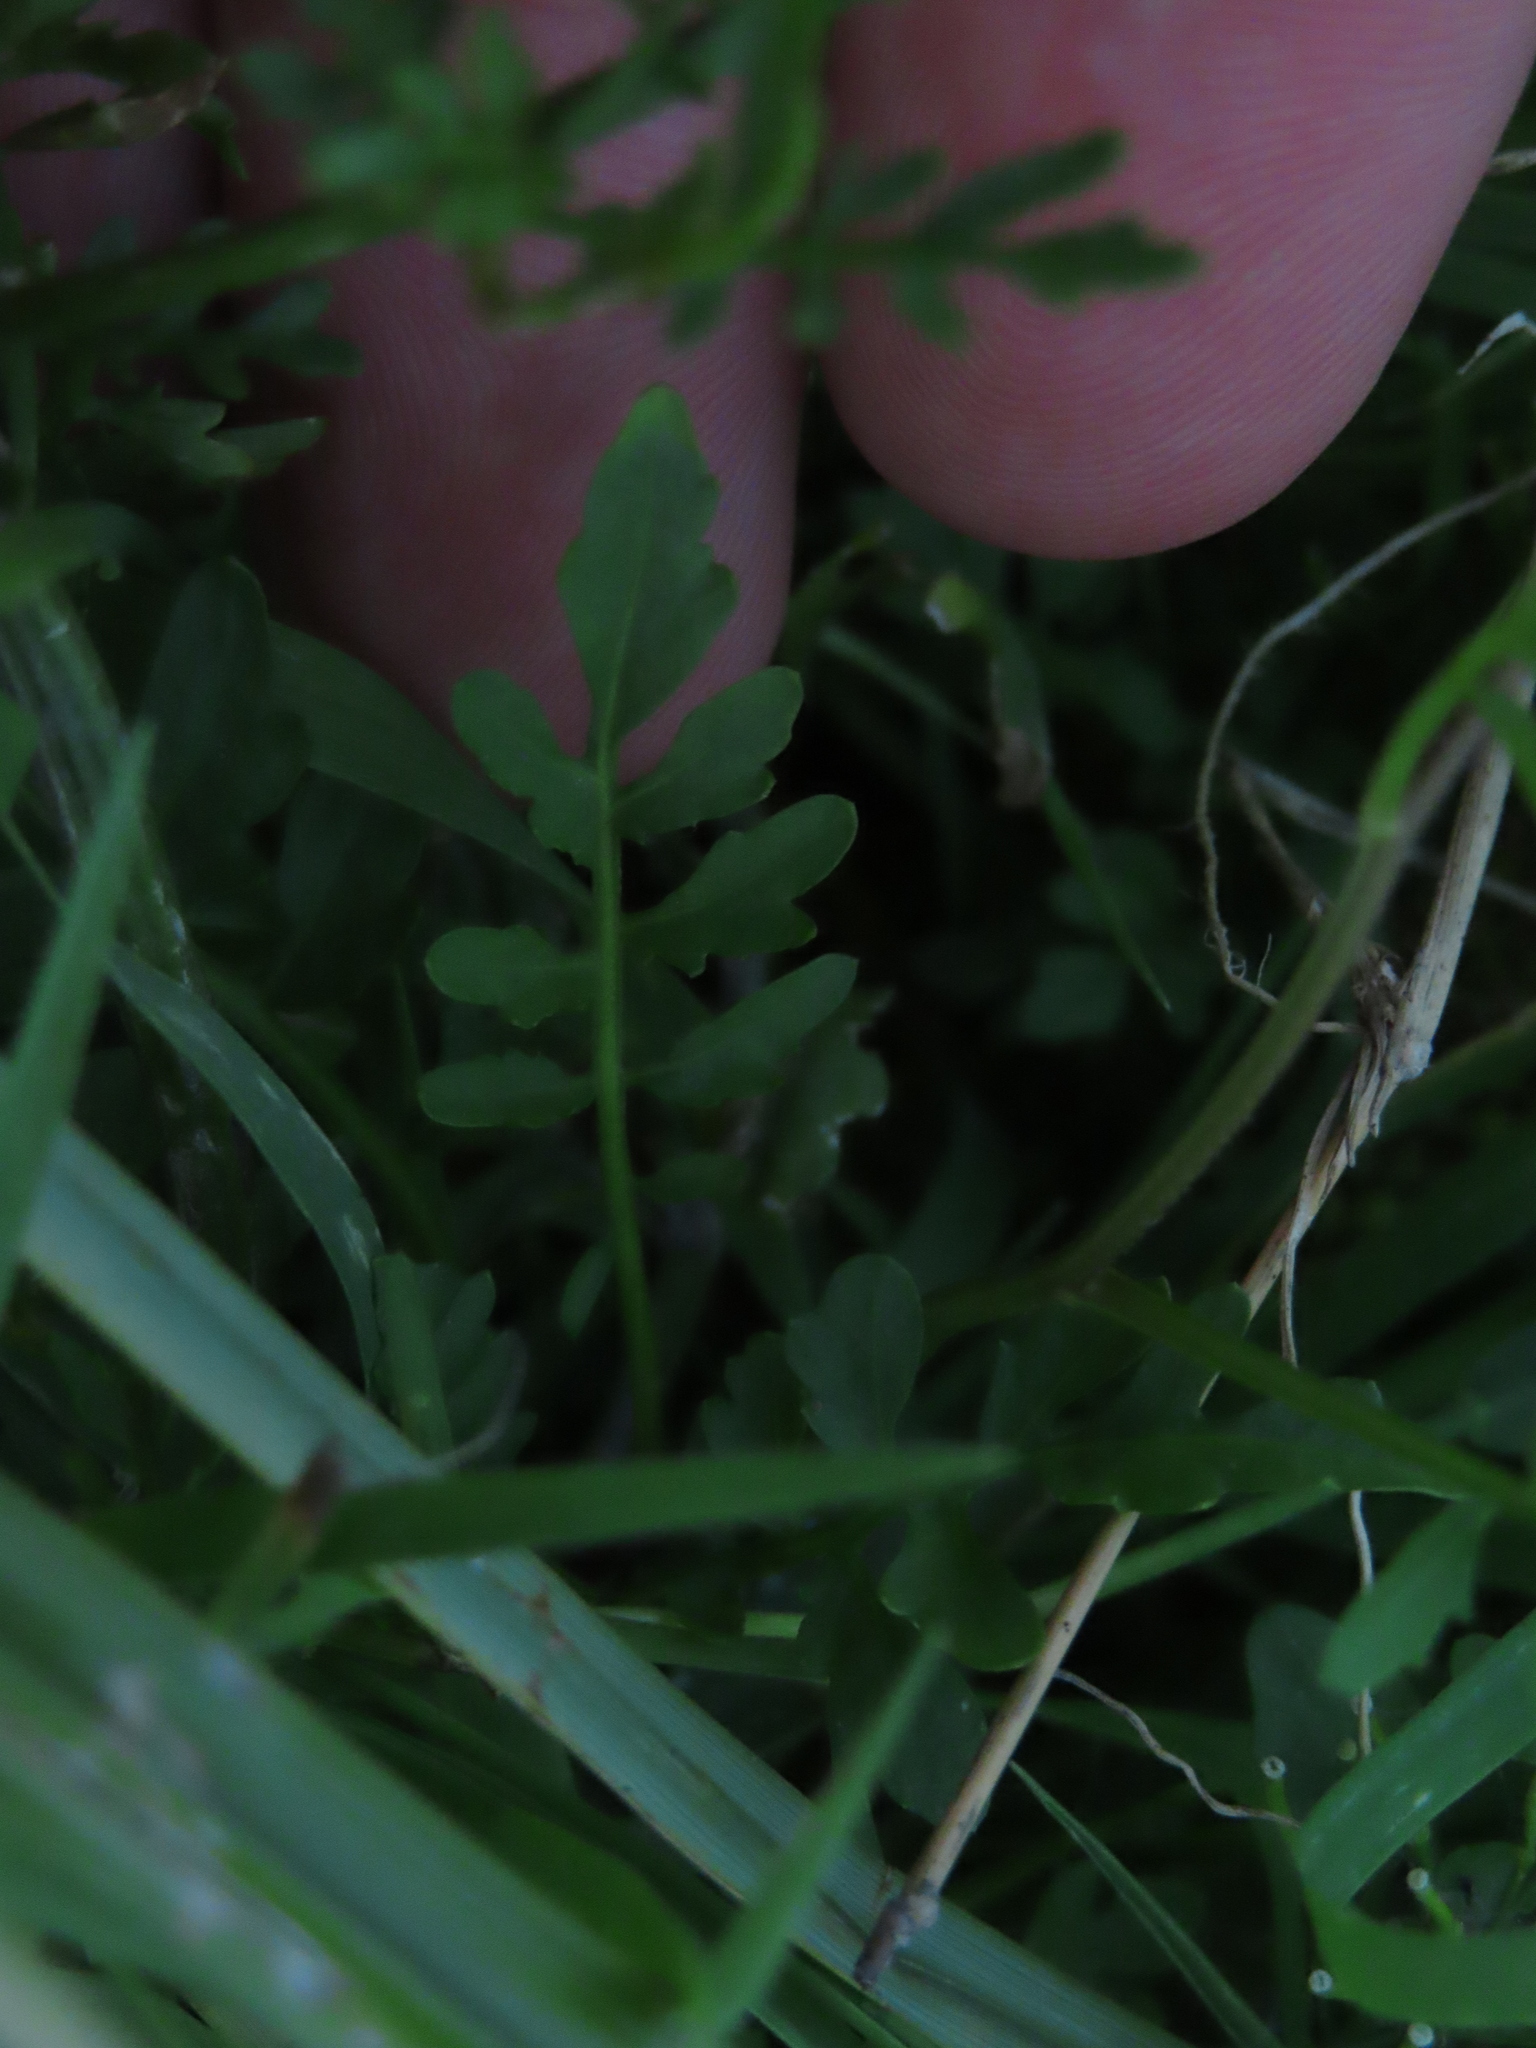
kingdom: Plantae
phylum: Tracheophyta
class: Magnoliopsida
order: Brassicales
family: Brassicaceae
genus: Rorippa
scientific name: Rorippa sylvestris
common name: Creeping yellowcress
